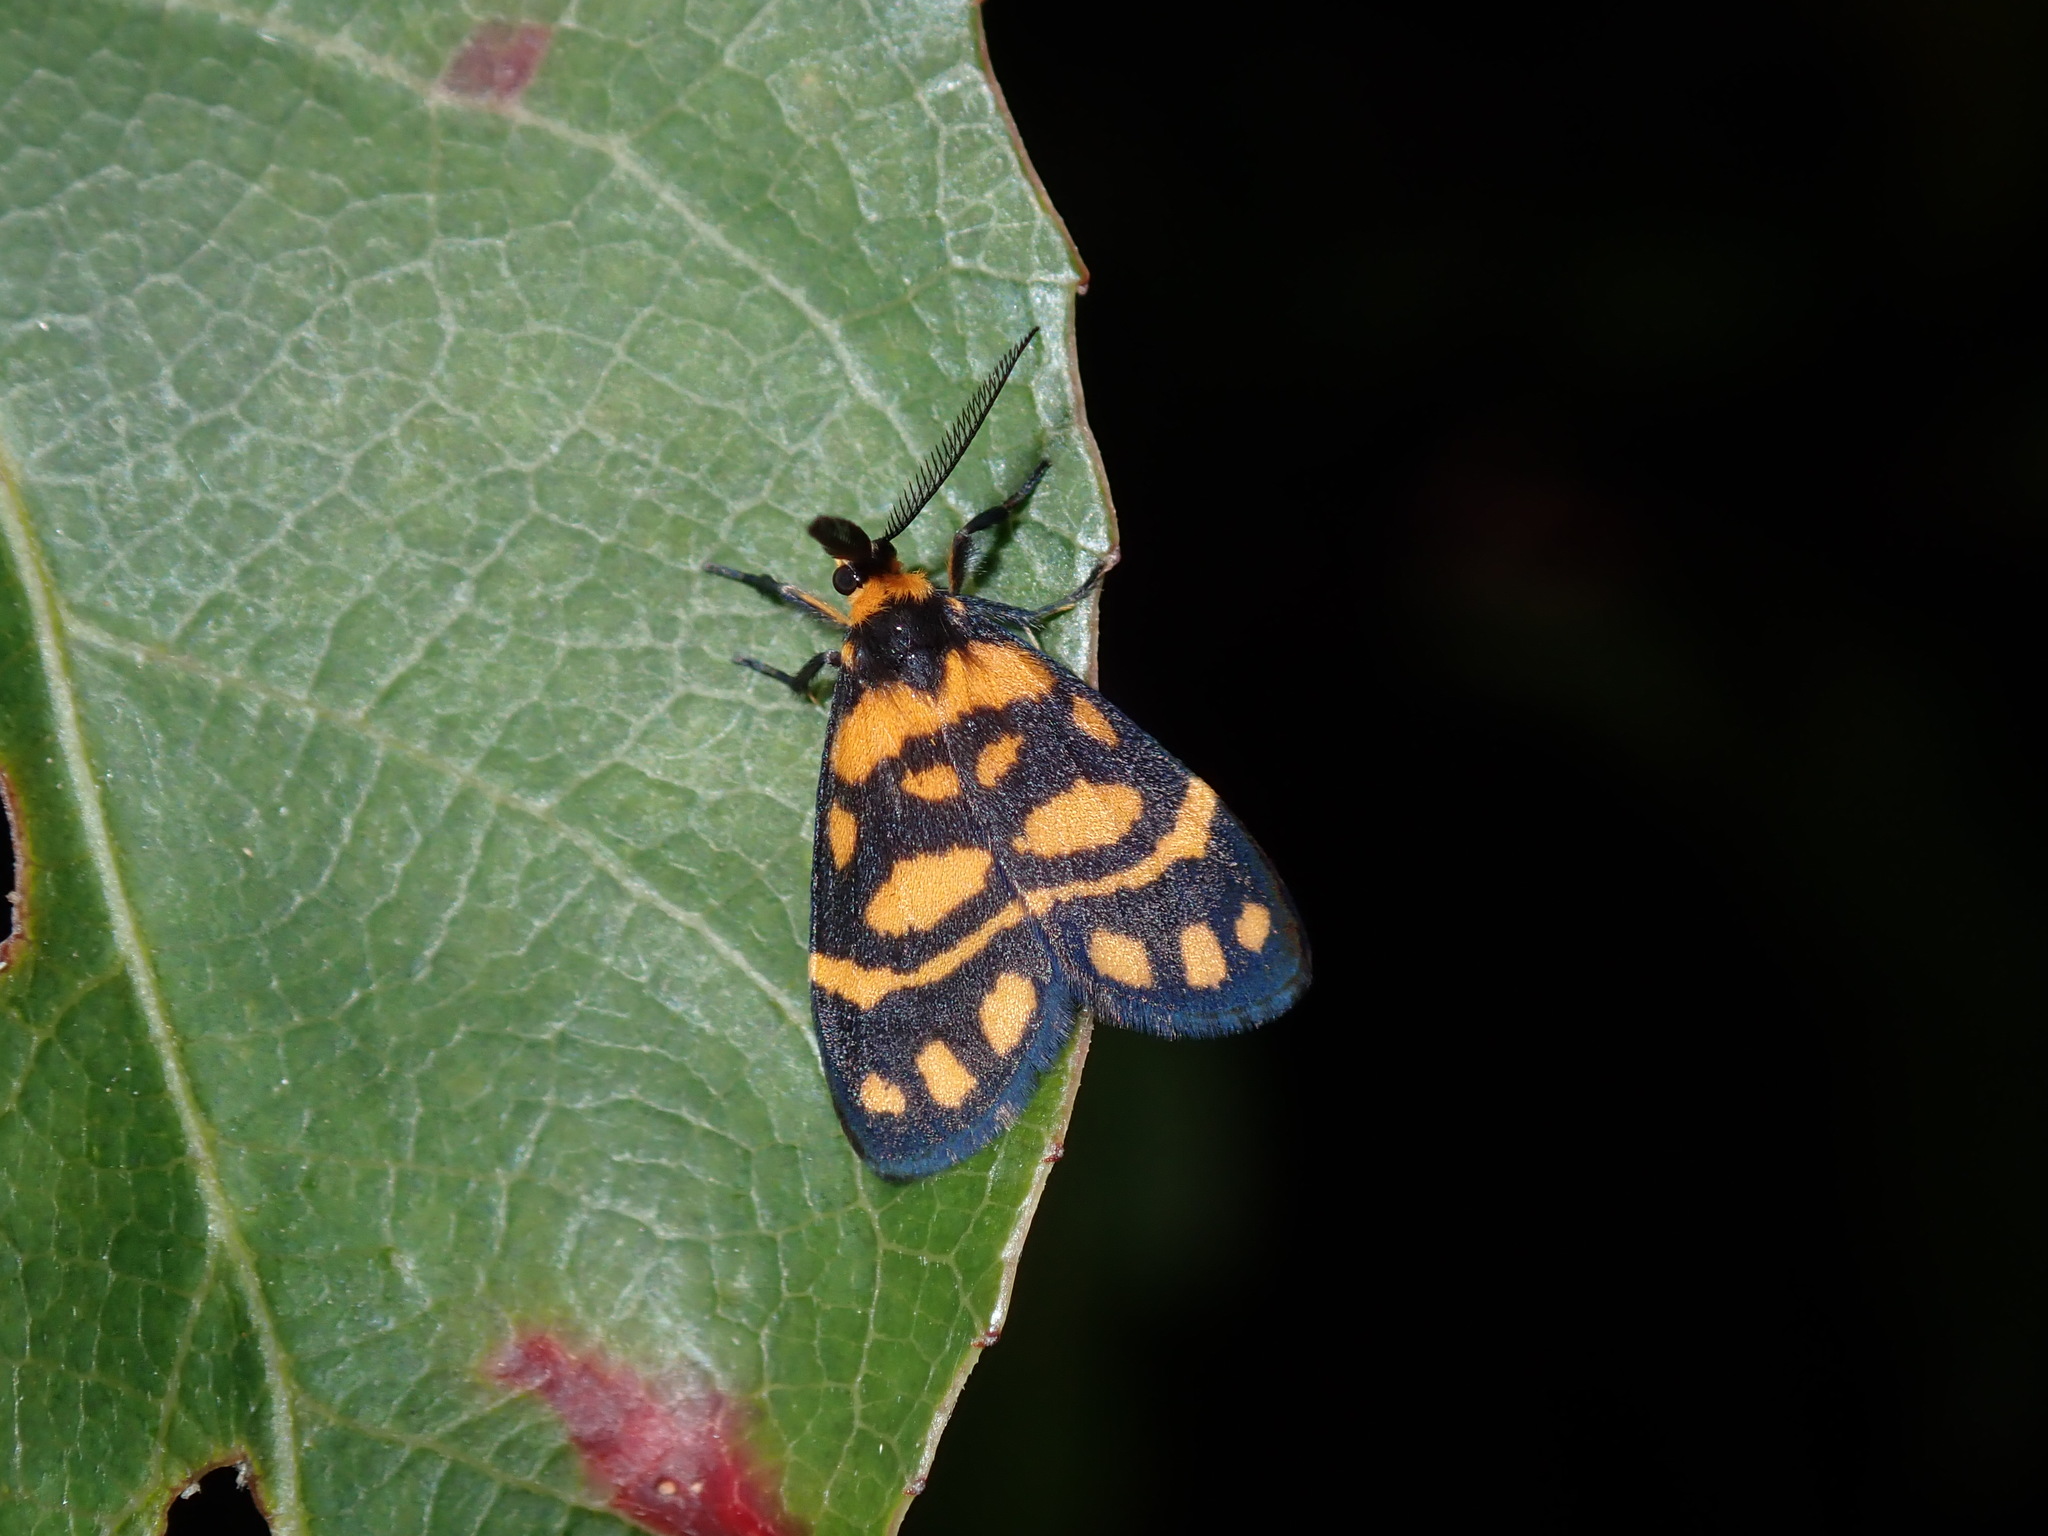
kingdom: Animalia
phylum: Arthropoda
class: Insecta
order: Lepidoptera
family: Erebidae
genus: Asura
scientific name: Asura lydia
